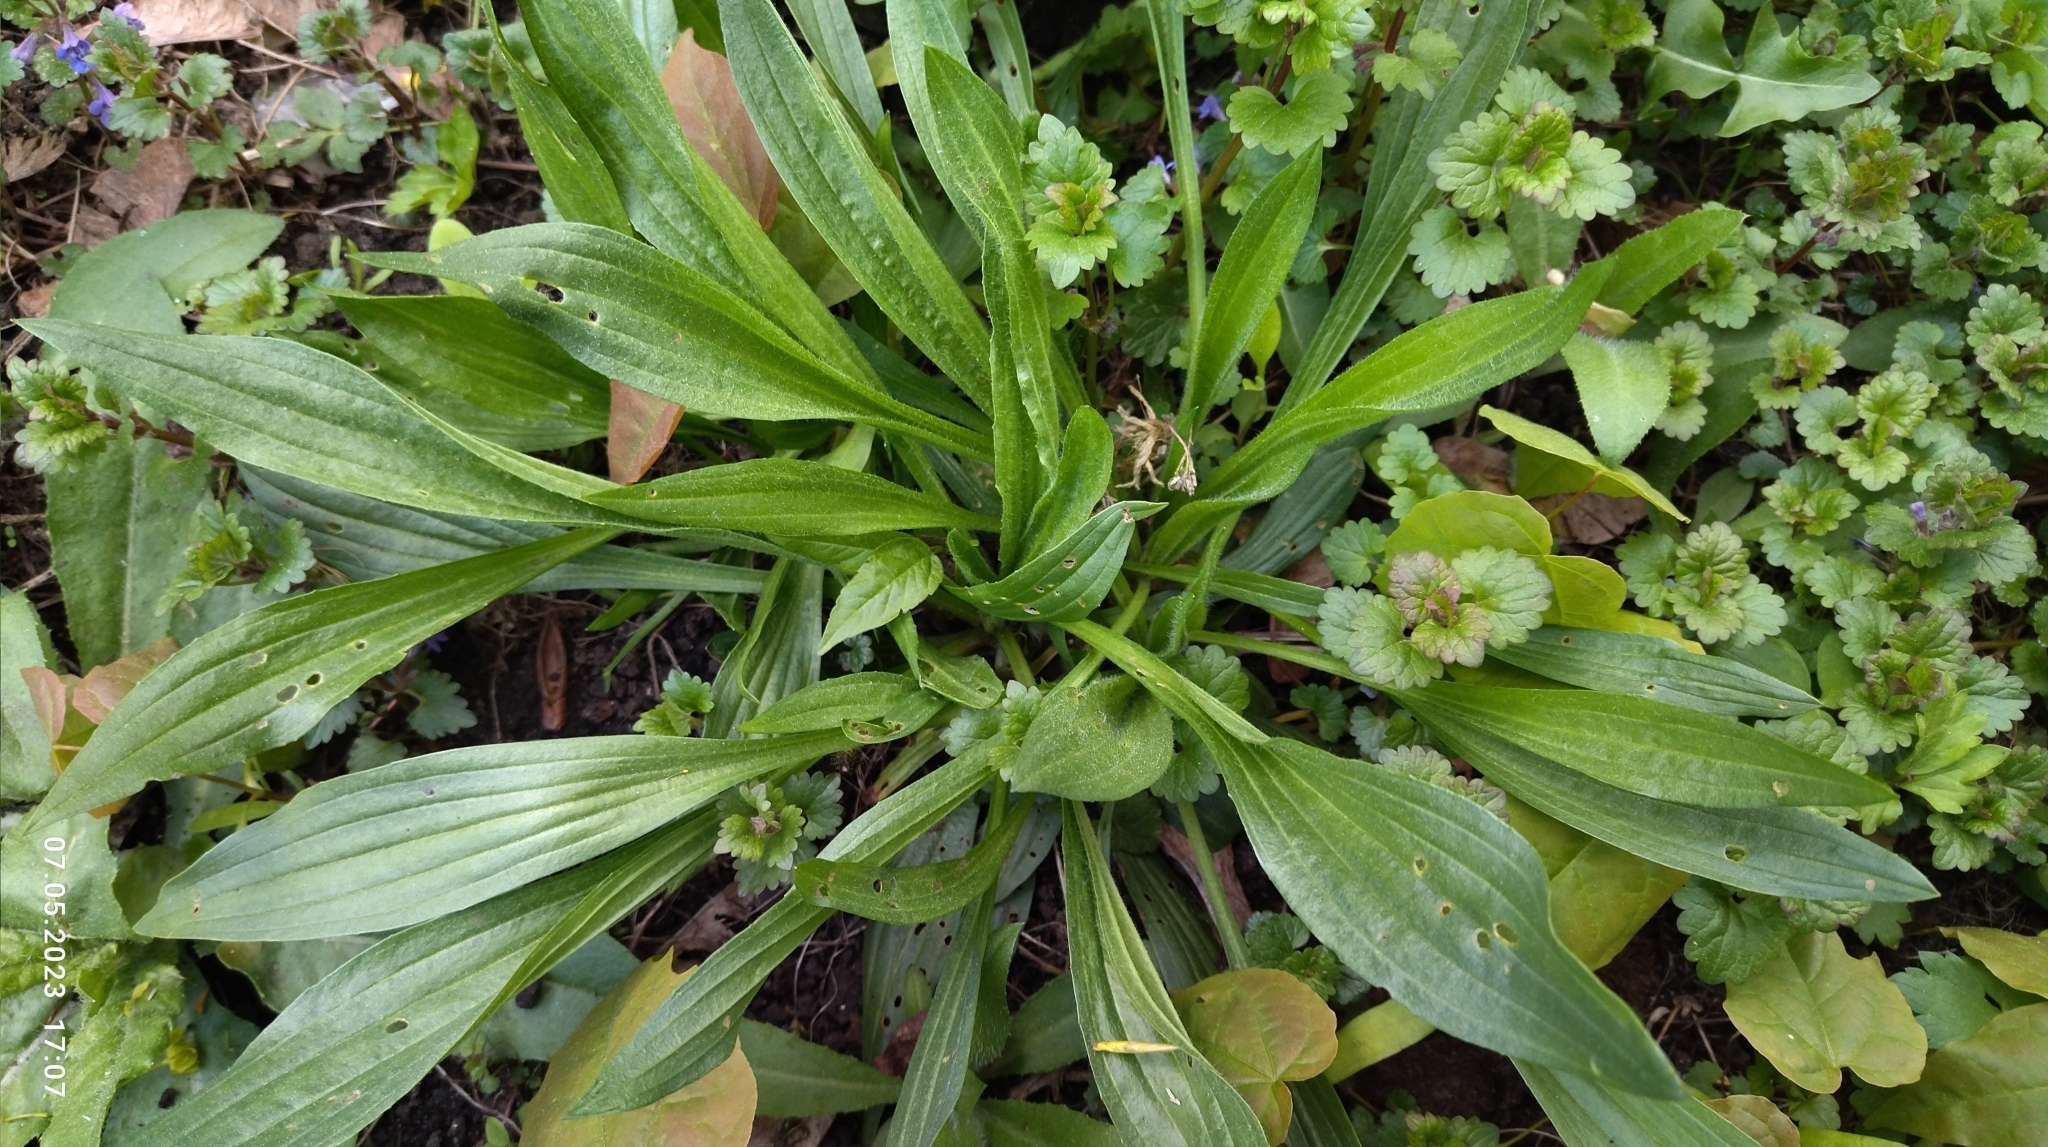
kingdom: Plantae
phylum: Tracheophyta
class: Magnoliopsida
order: Lamiales
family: Plantaginaceae
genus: Plantago
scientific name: Plantago lanceolata
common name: Ribwort plantain
